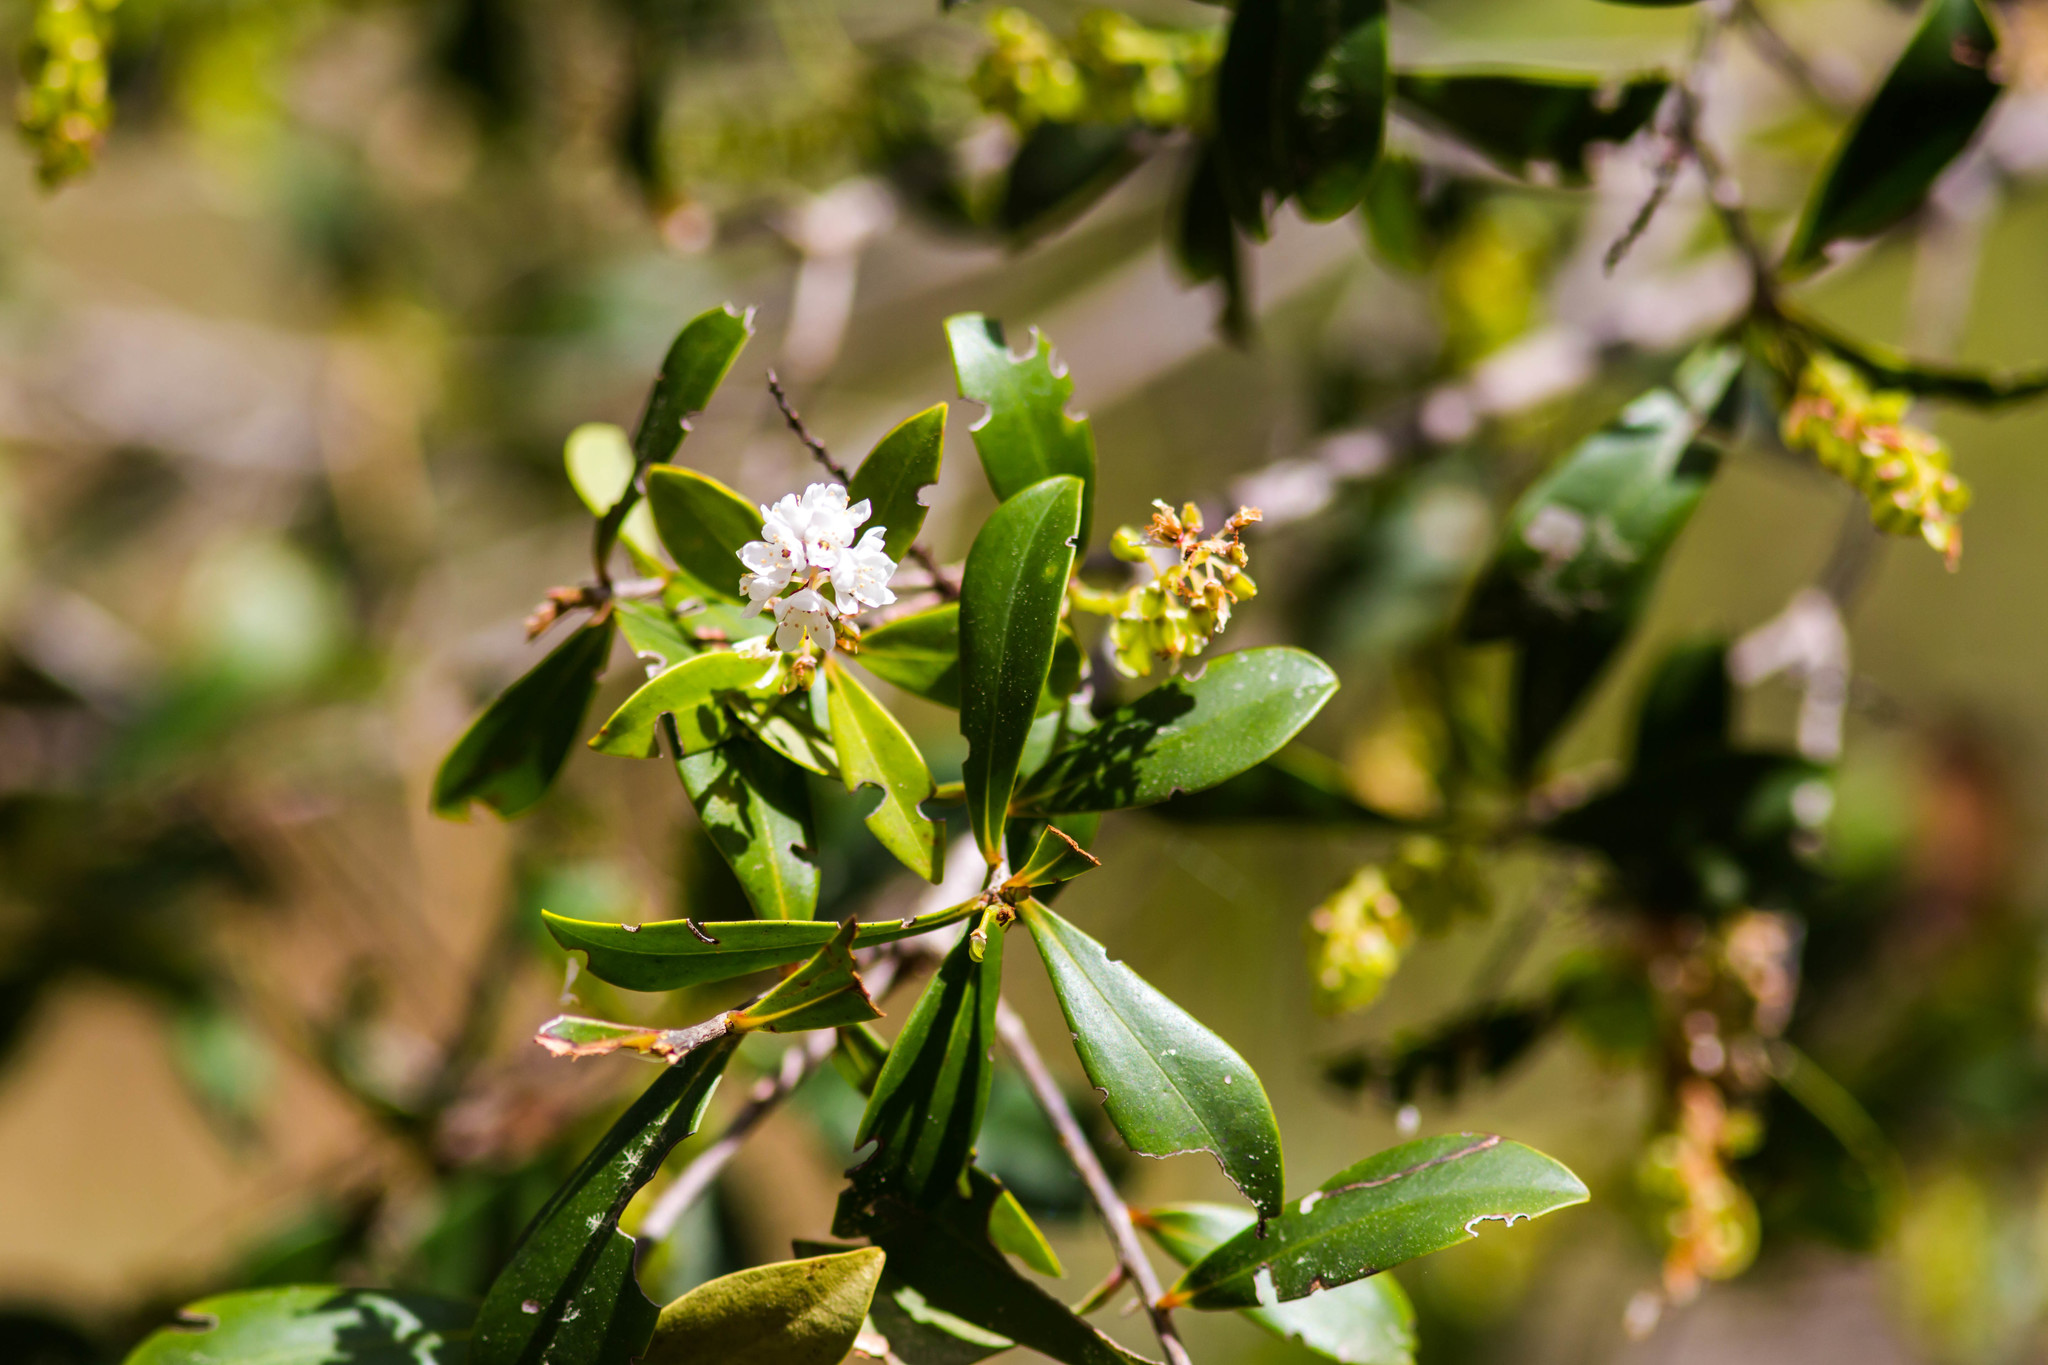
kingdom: Plantae
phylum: Tracheophyta
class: Magnoliopsida
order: Ericales
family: Cyrillaceae
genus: Cliftonia
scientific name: Cliftonia monophylla
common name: Titi
